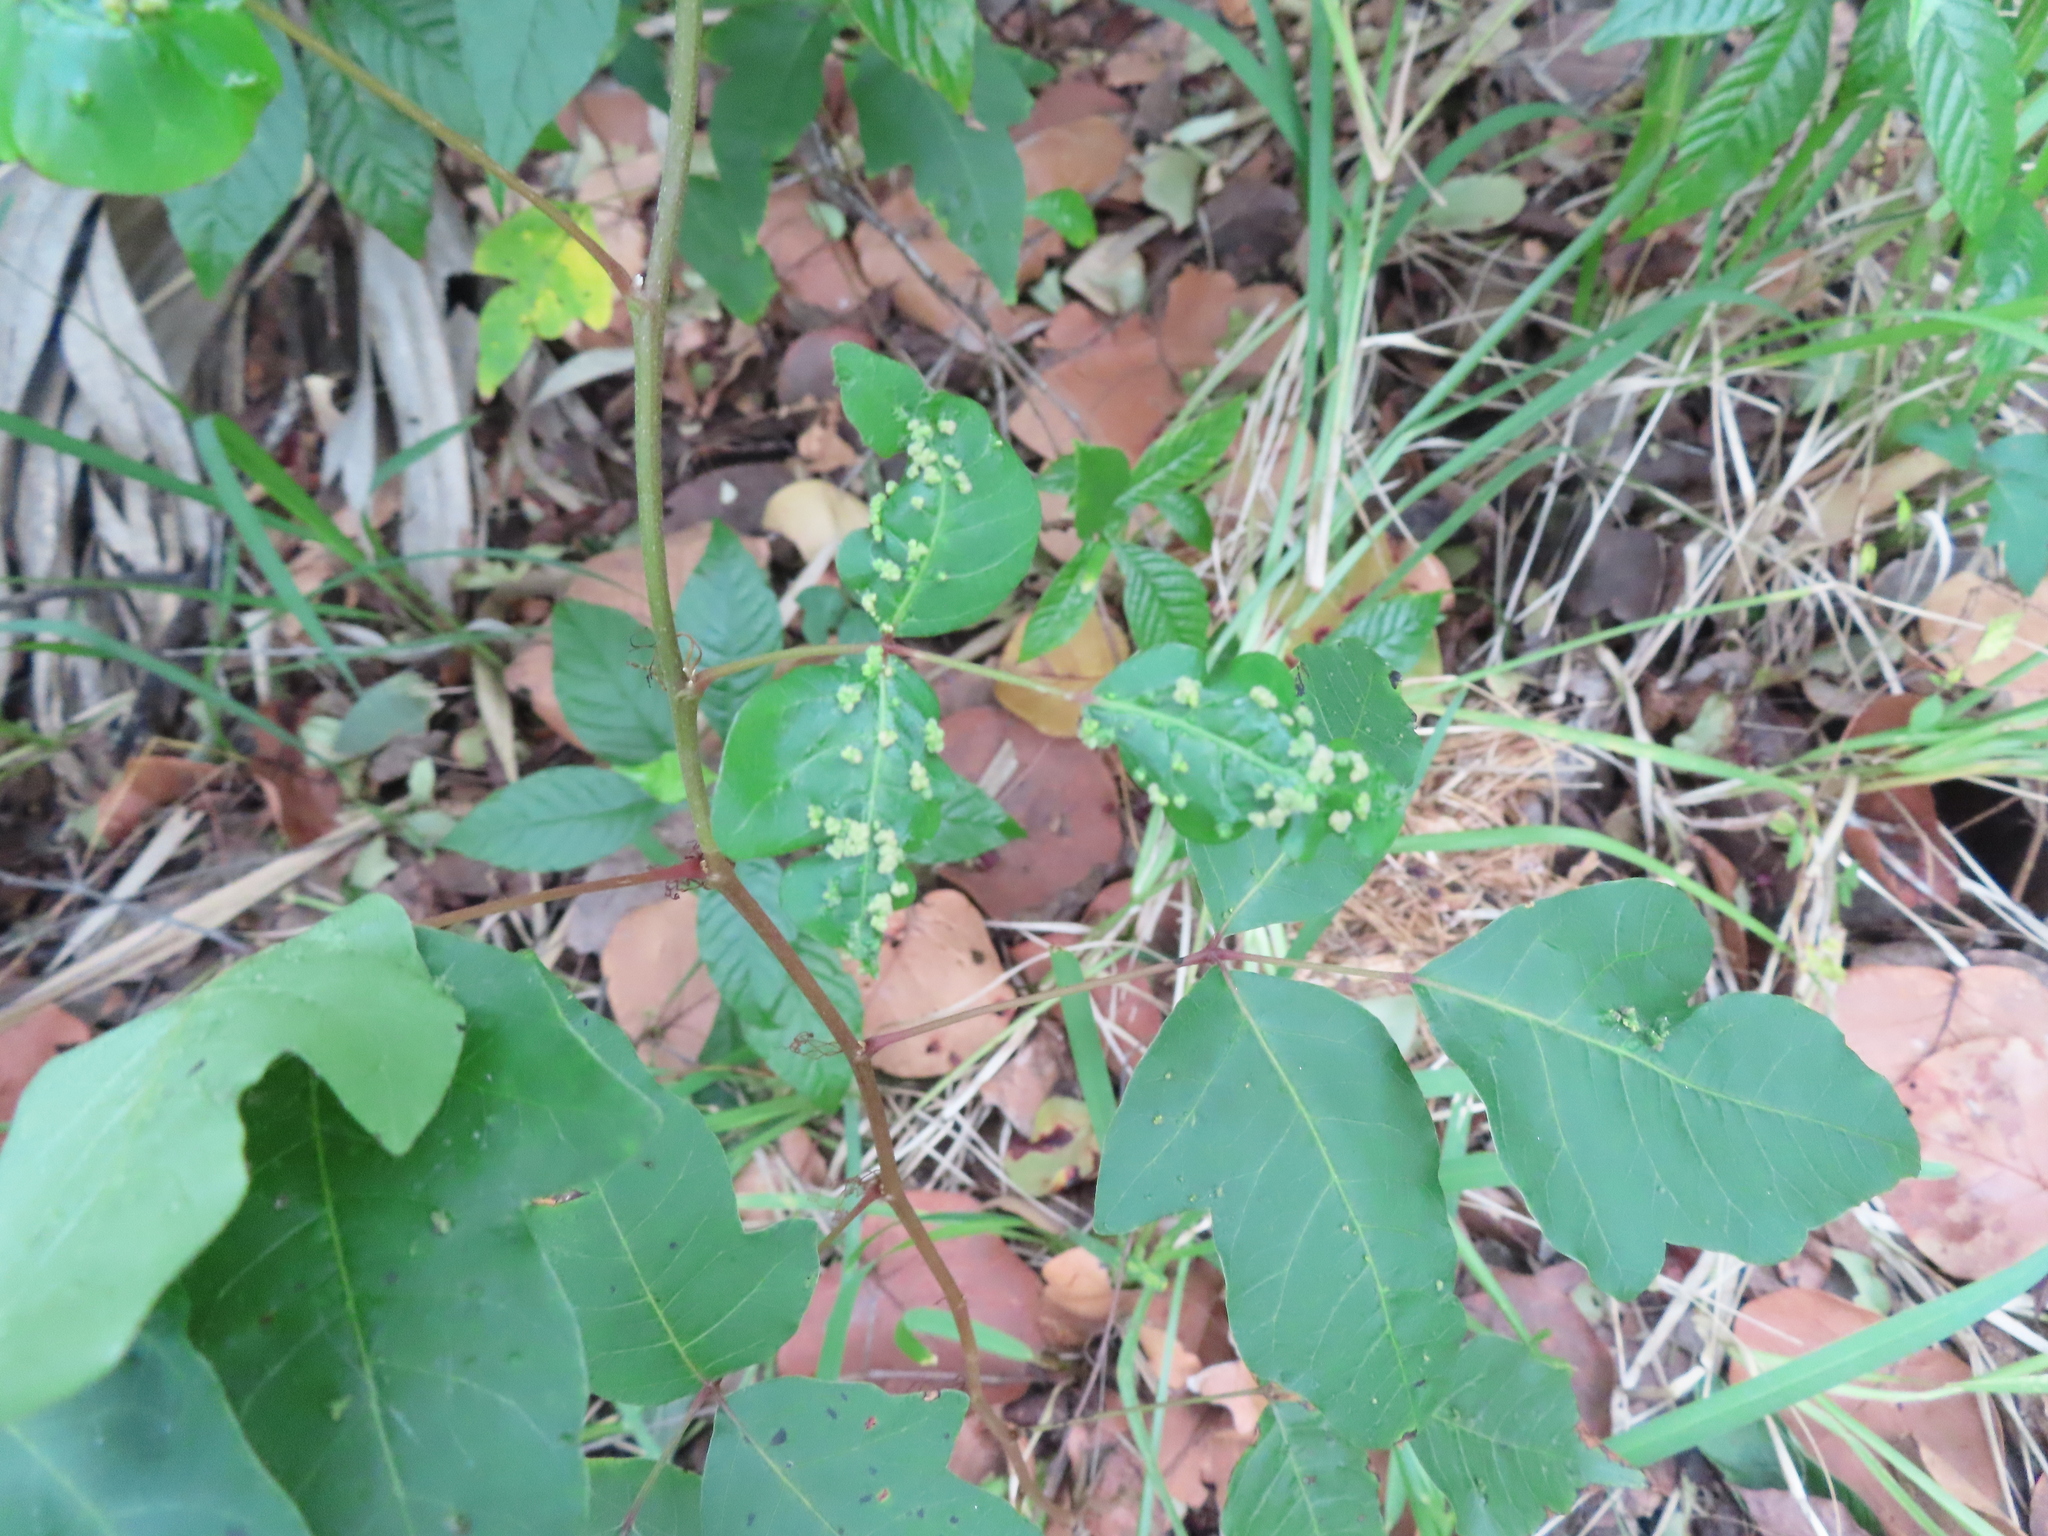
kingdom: Animalia
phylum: Arthropoda
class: Arachnida
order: Trombidiformes
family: Eriophyidae
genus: Aculops
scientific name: Aculops
